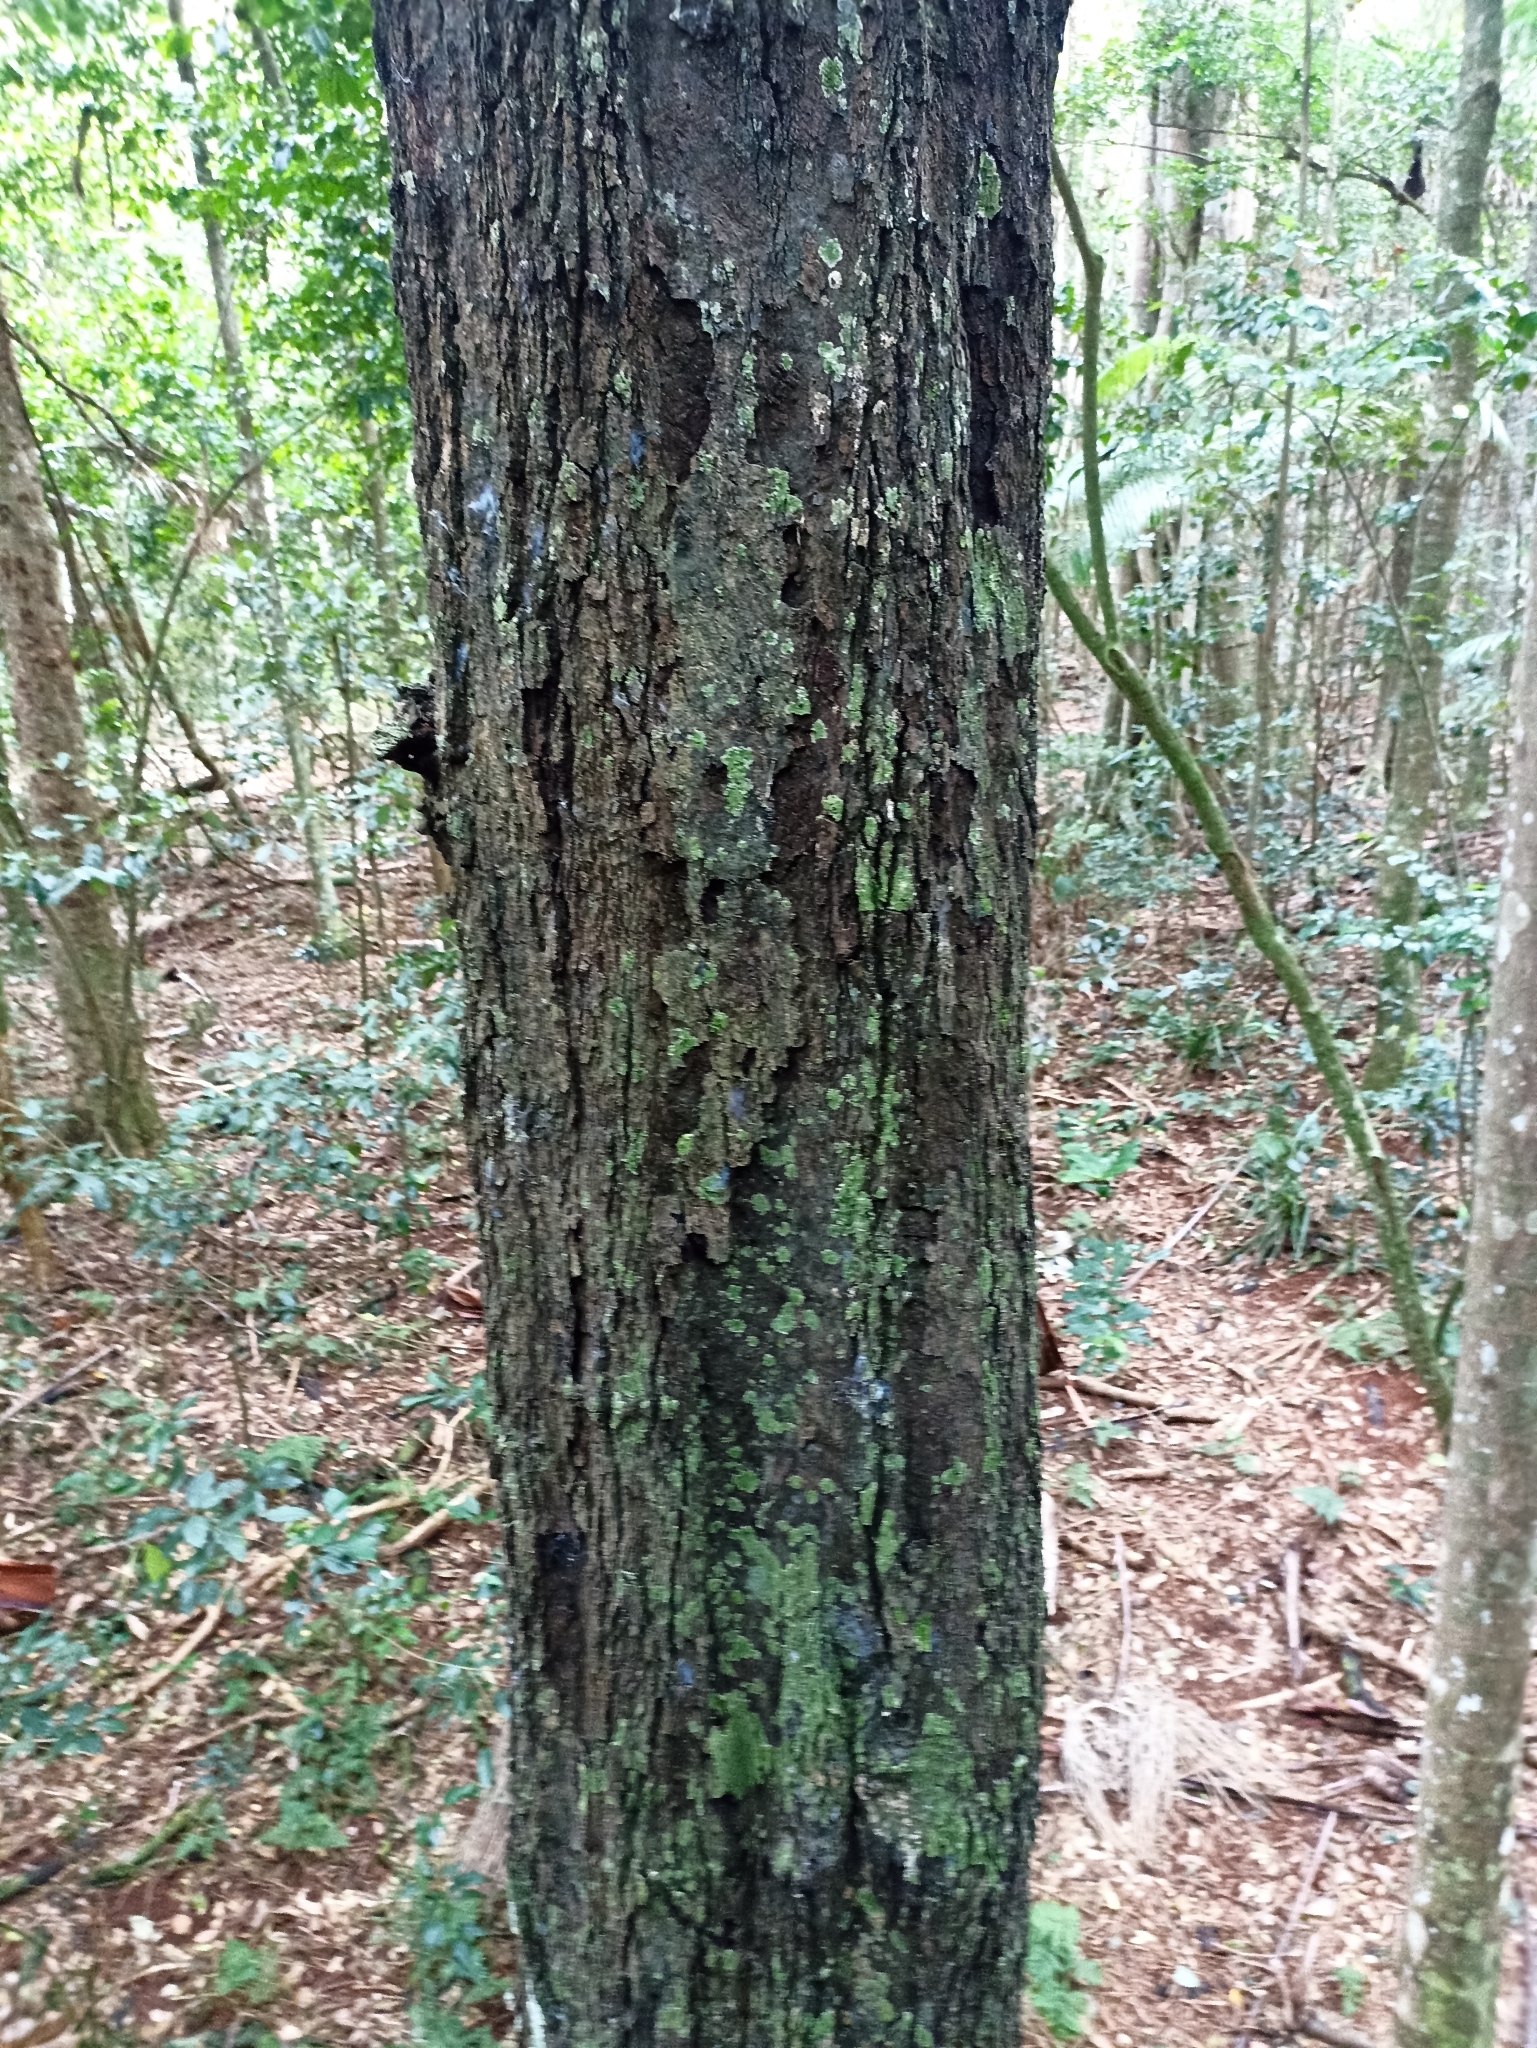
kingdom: Plantae
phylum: Tracheophyta
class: Magnoliopsida
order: Ericales
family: Ebenaceae
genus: Diospyros
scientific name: Diospyros pentamera
